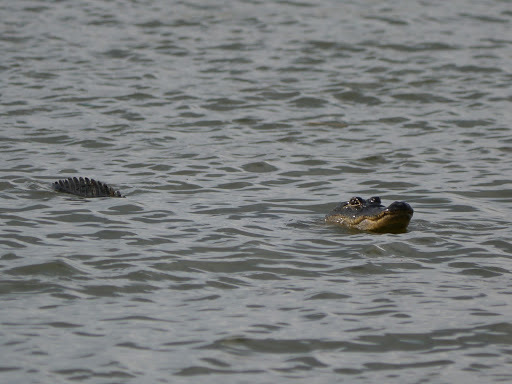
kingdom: Animalia
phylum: Chordata
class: Crocodylia
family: Alligatoridae
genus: Alligator
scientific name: Alligator mississippiensis
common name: American alligator
